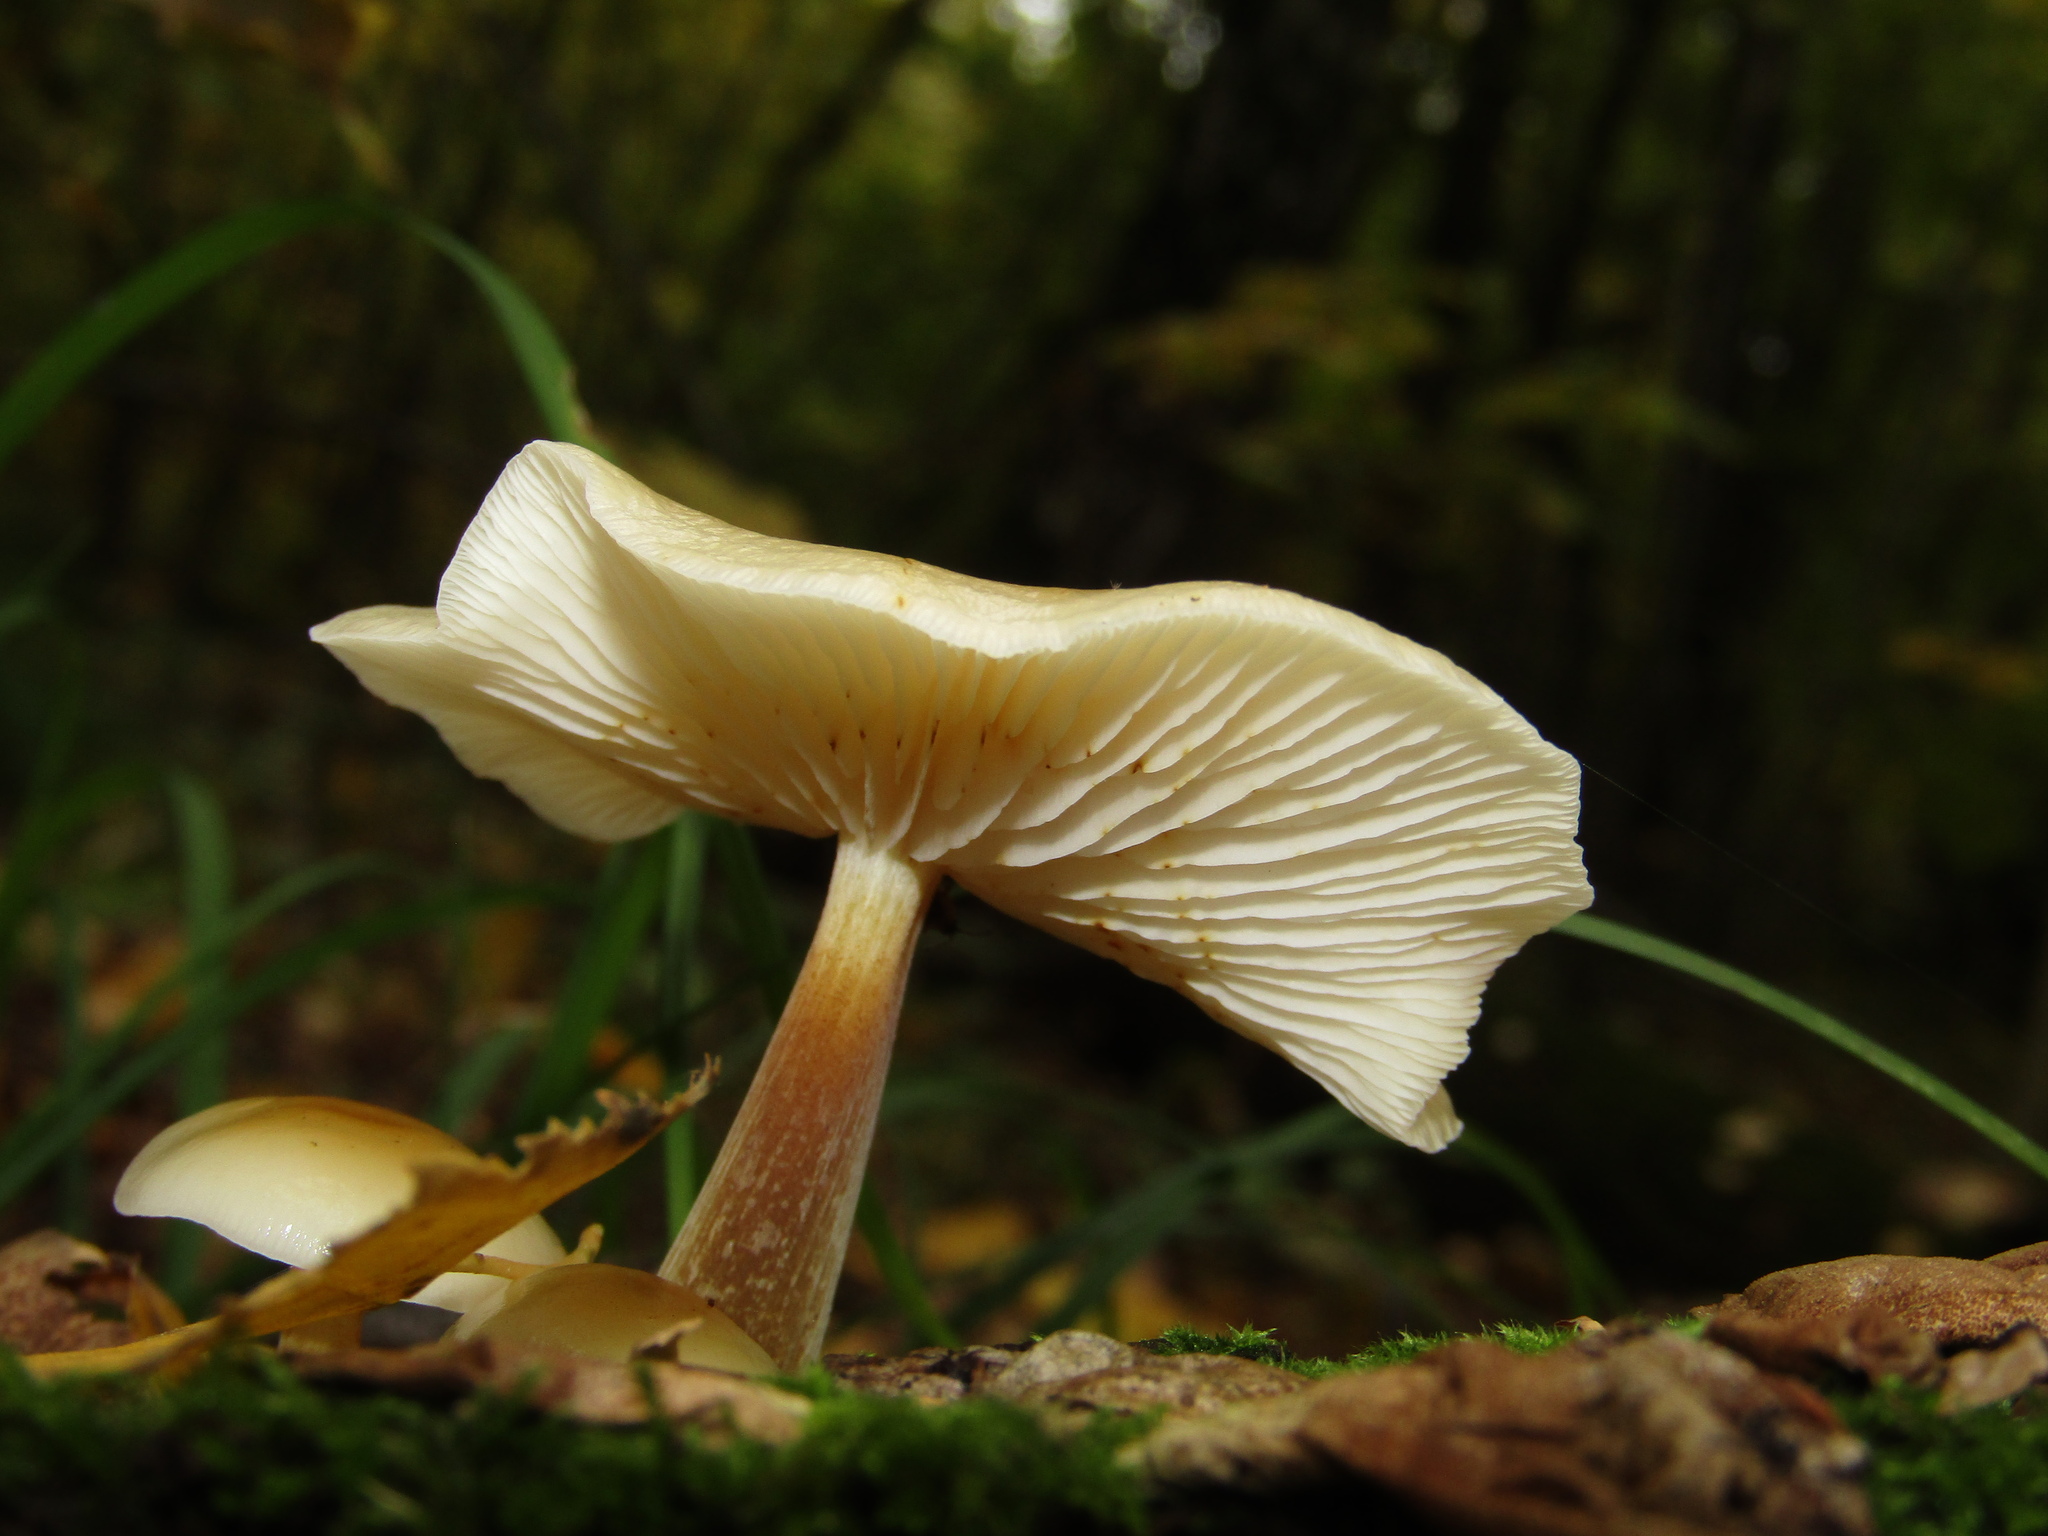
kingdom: Fungi
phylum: Basidiomycota
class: Agaricomycetes
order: Agaricales
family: Physalacriaceae
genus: Flammulina
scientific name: Flammulina
